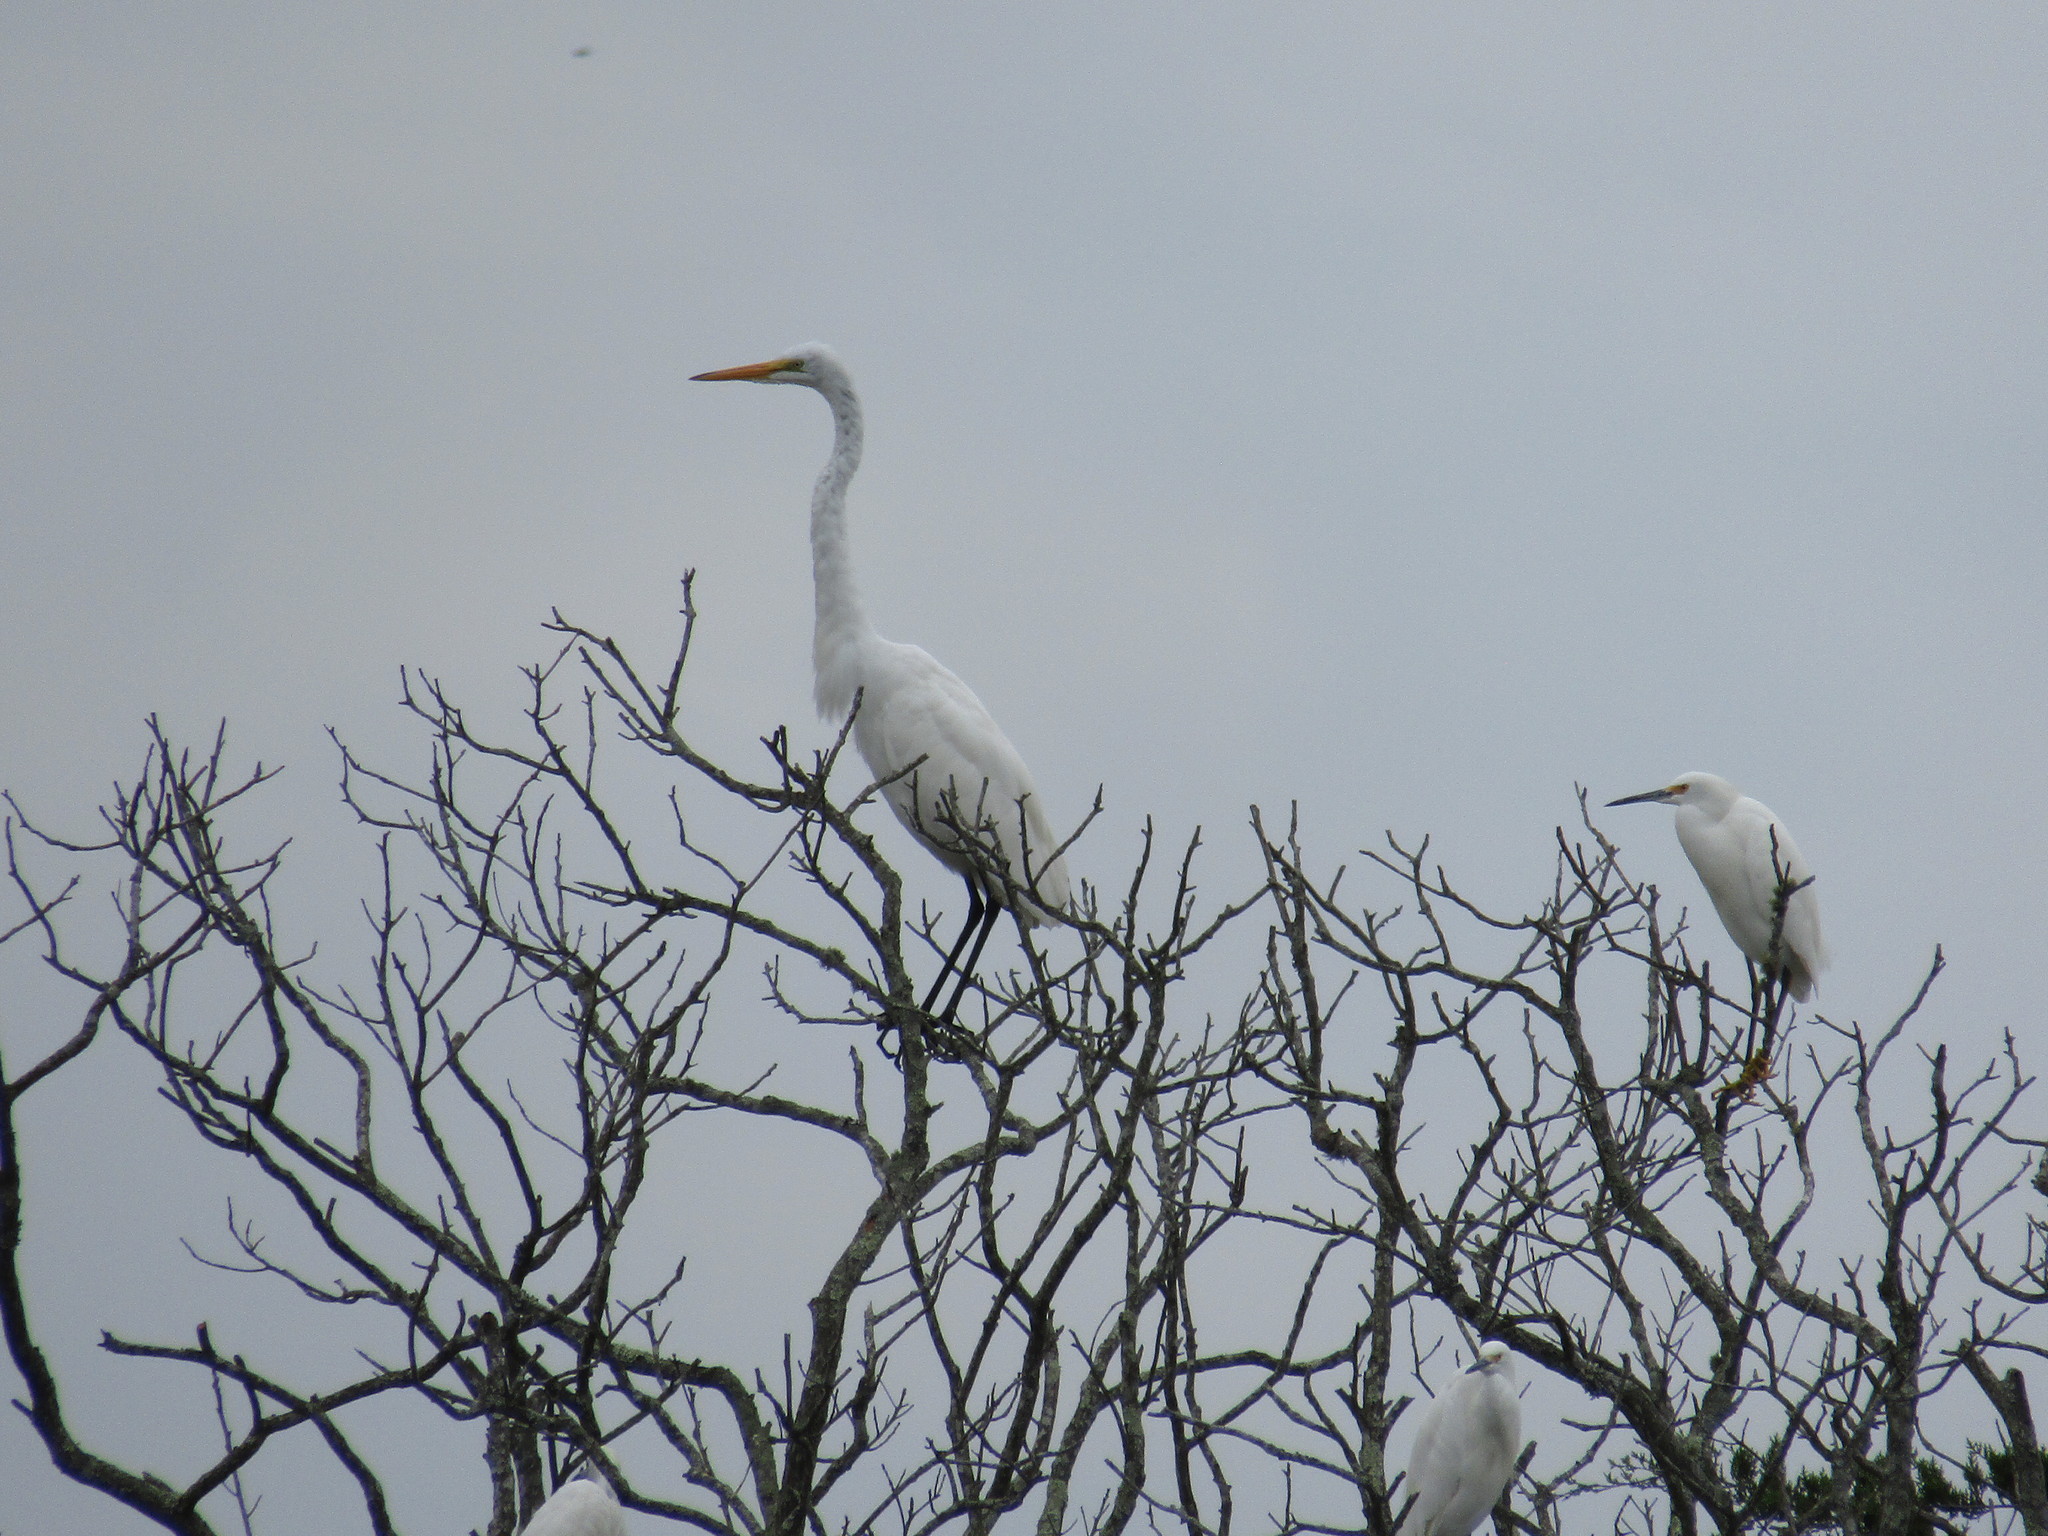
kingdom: Animalia
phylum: Chordata
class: Aves
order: Pelecaniformes
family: Ardeidae
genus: Ardea
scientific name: Ardea alba
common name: Great egret
